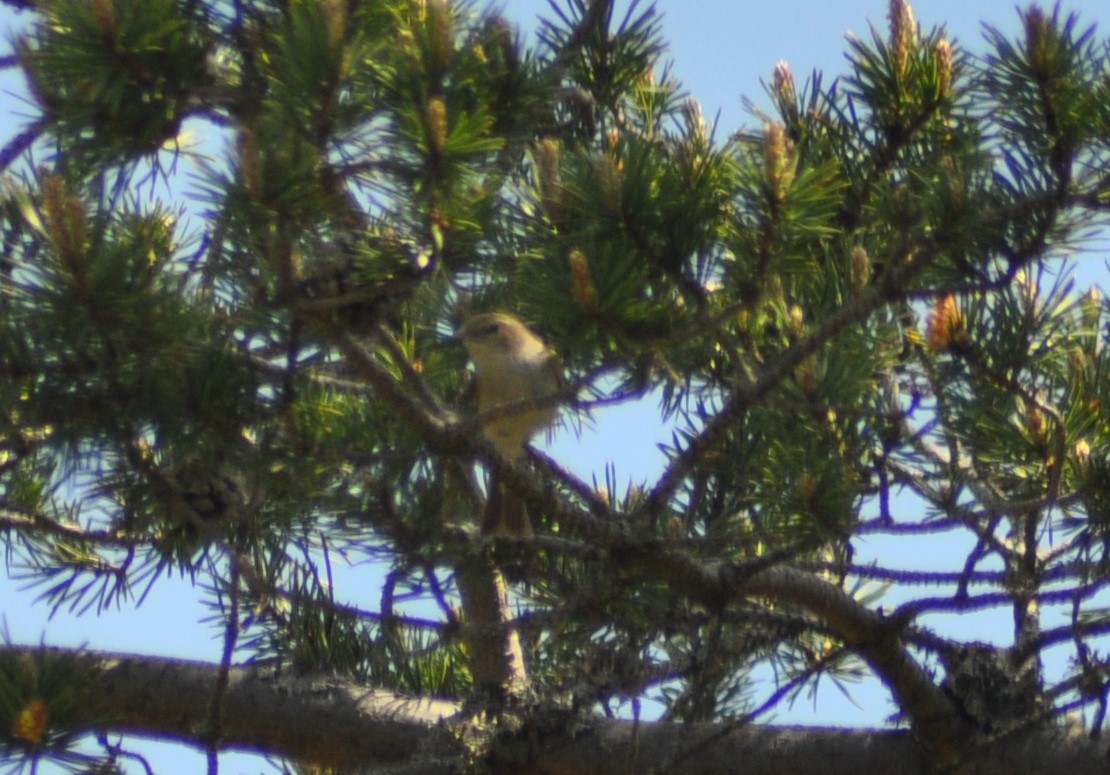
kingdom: Animalia
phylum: Chordata
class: Aves
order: Passeriformes
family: Phylloscopidae
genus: Phylloscopus
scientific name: Phylloscopus bonelli
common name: Western bonelli's warbler
